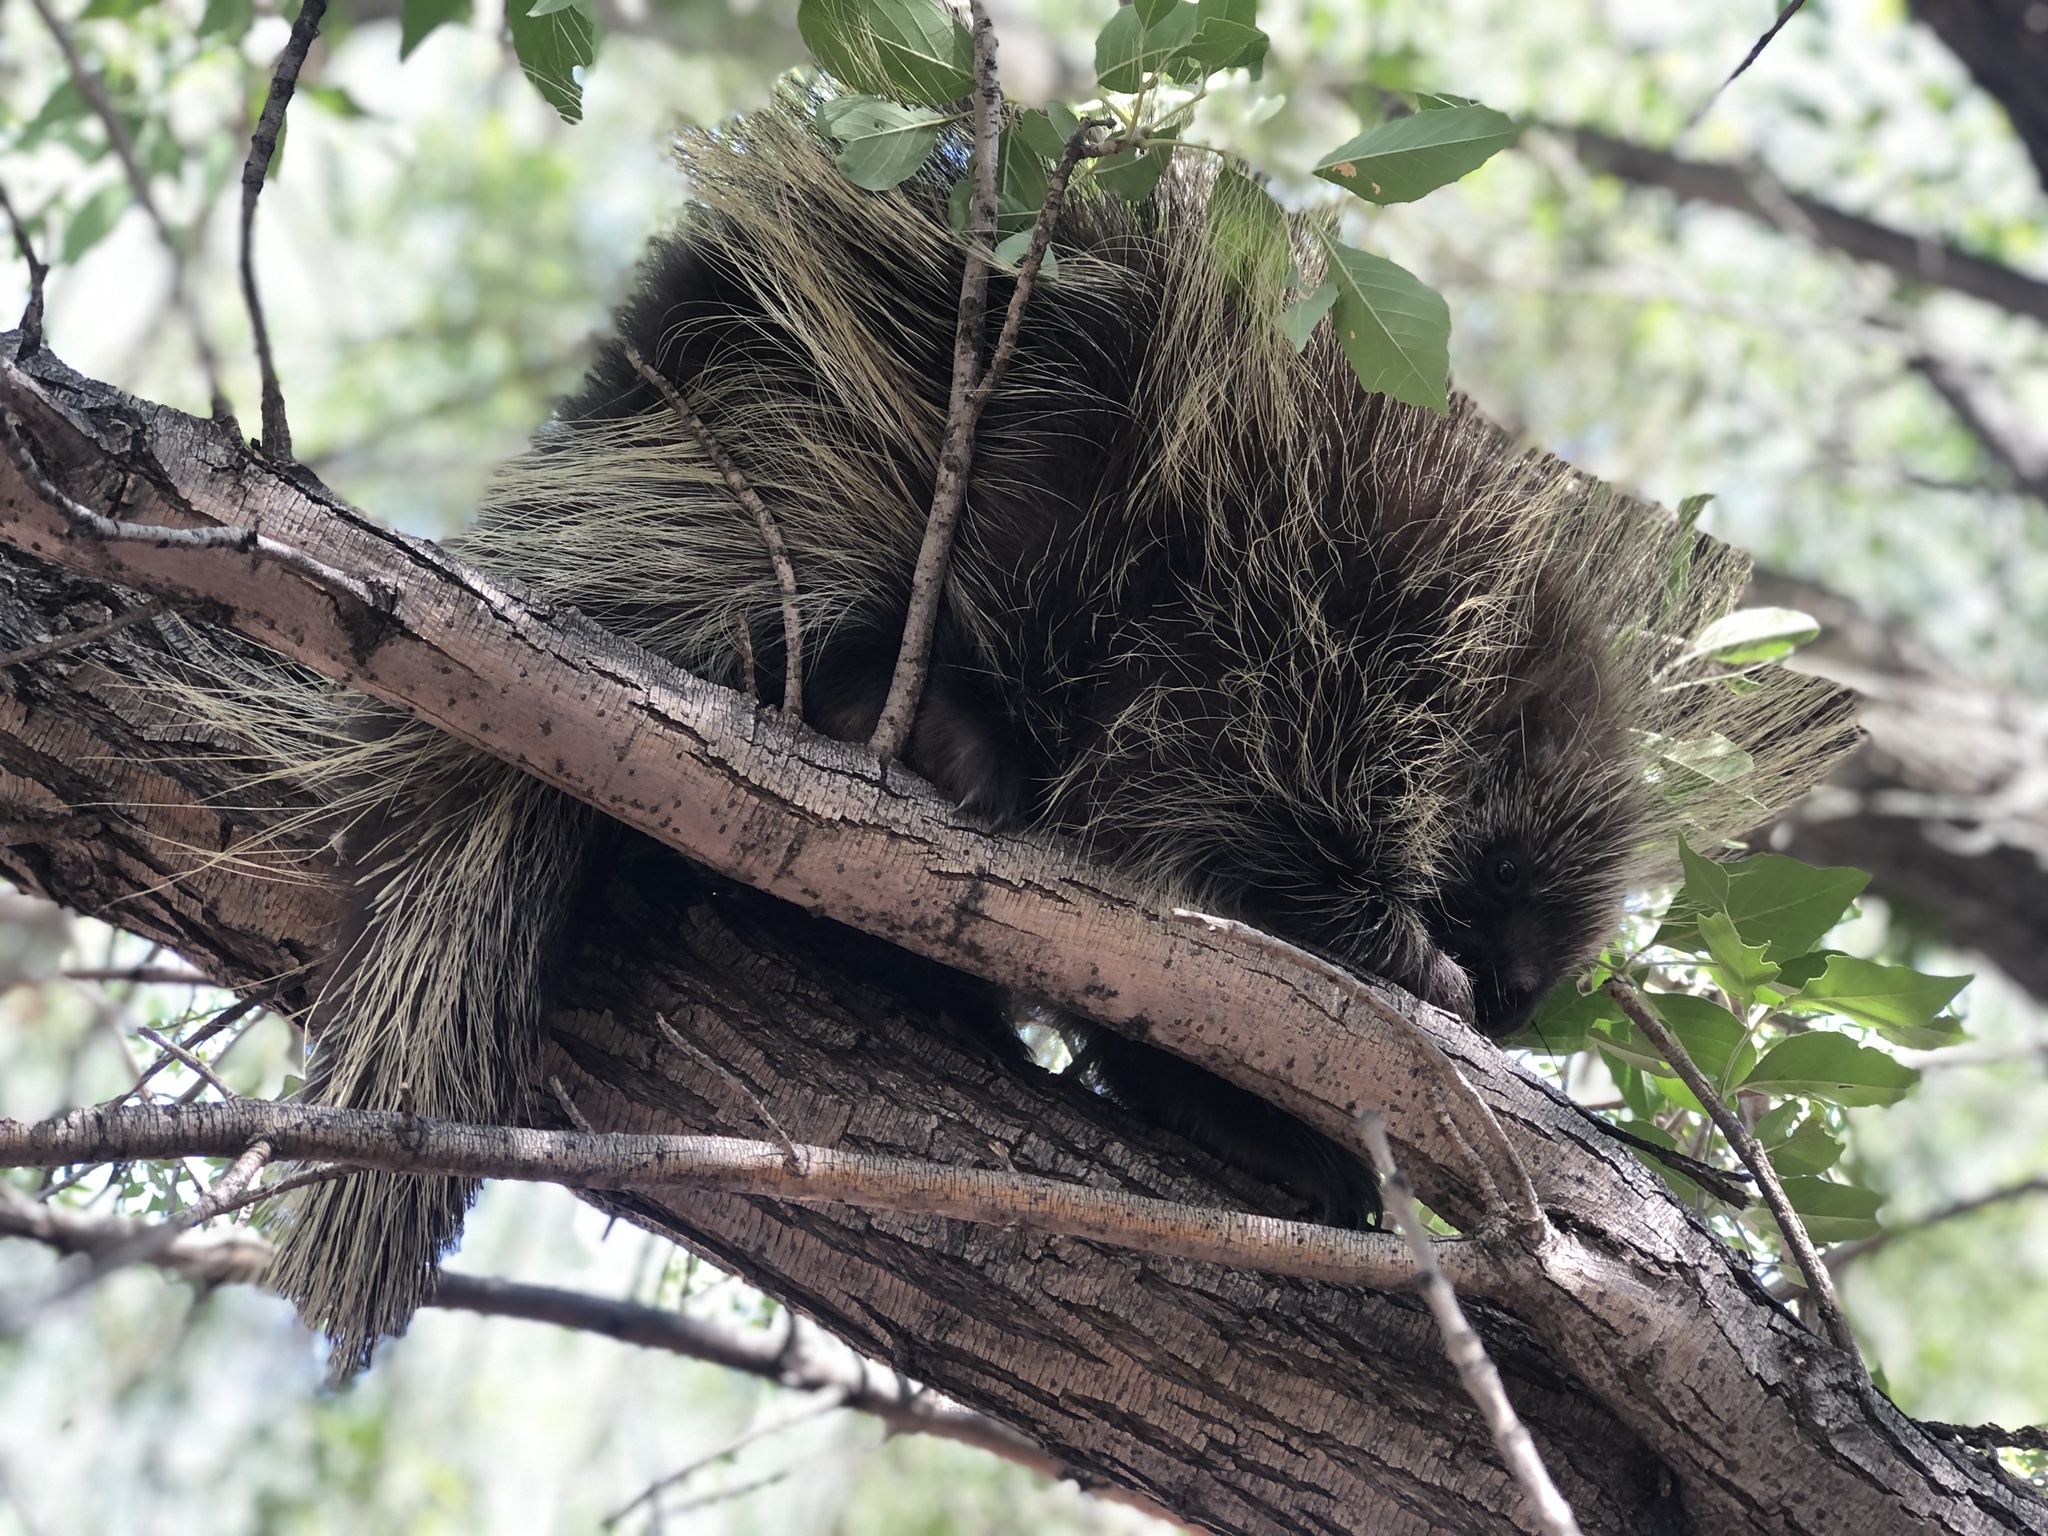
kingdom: Animalia
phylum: Chordata
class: Mammalia
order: Rodentia
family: Erethizontidae
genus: Erethizon
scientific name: Erethizon dorsatus
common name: North american porcupine
